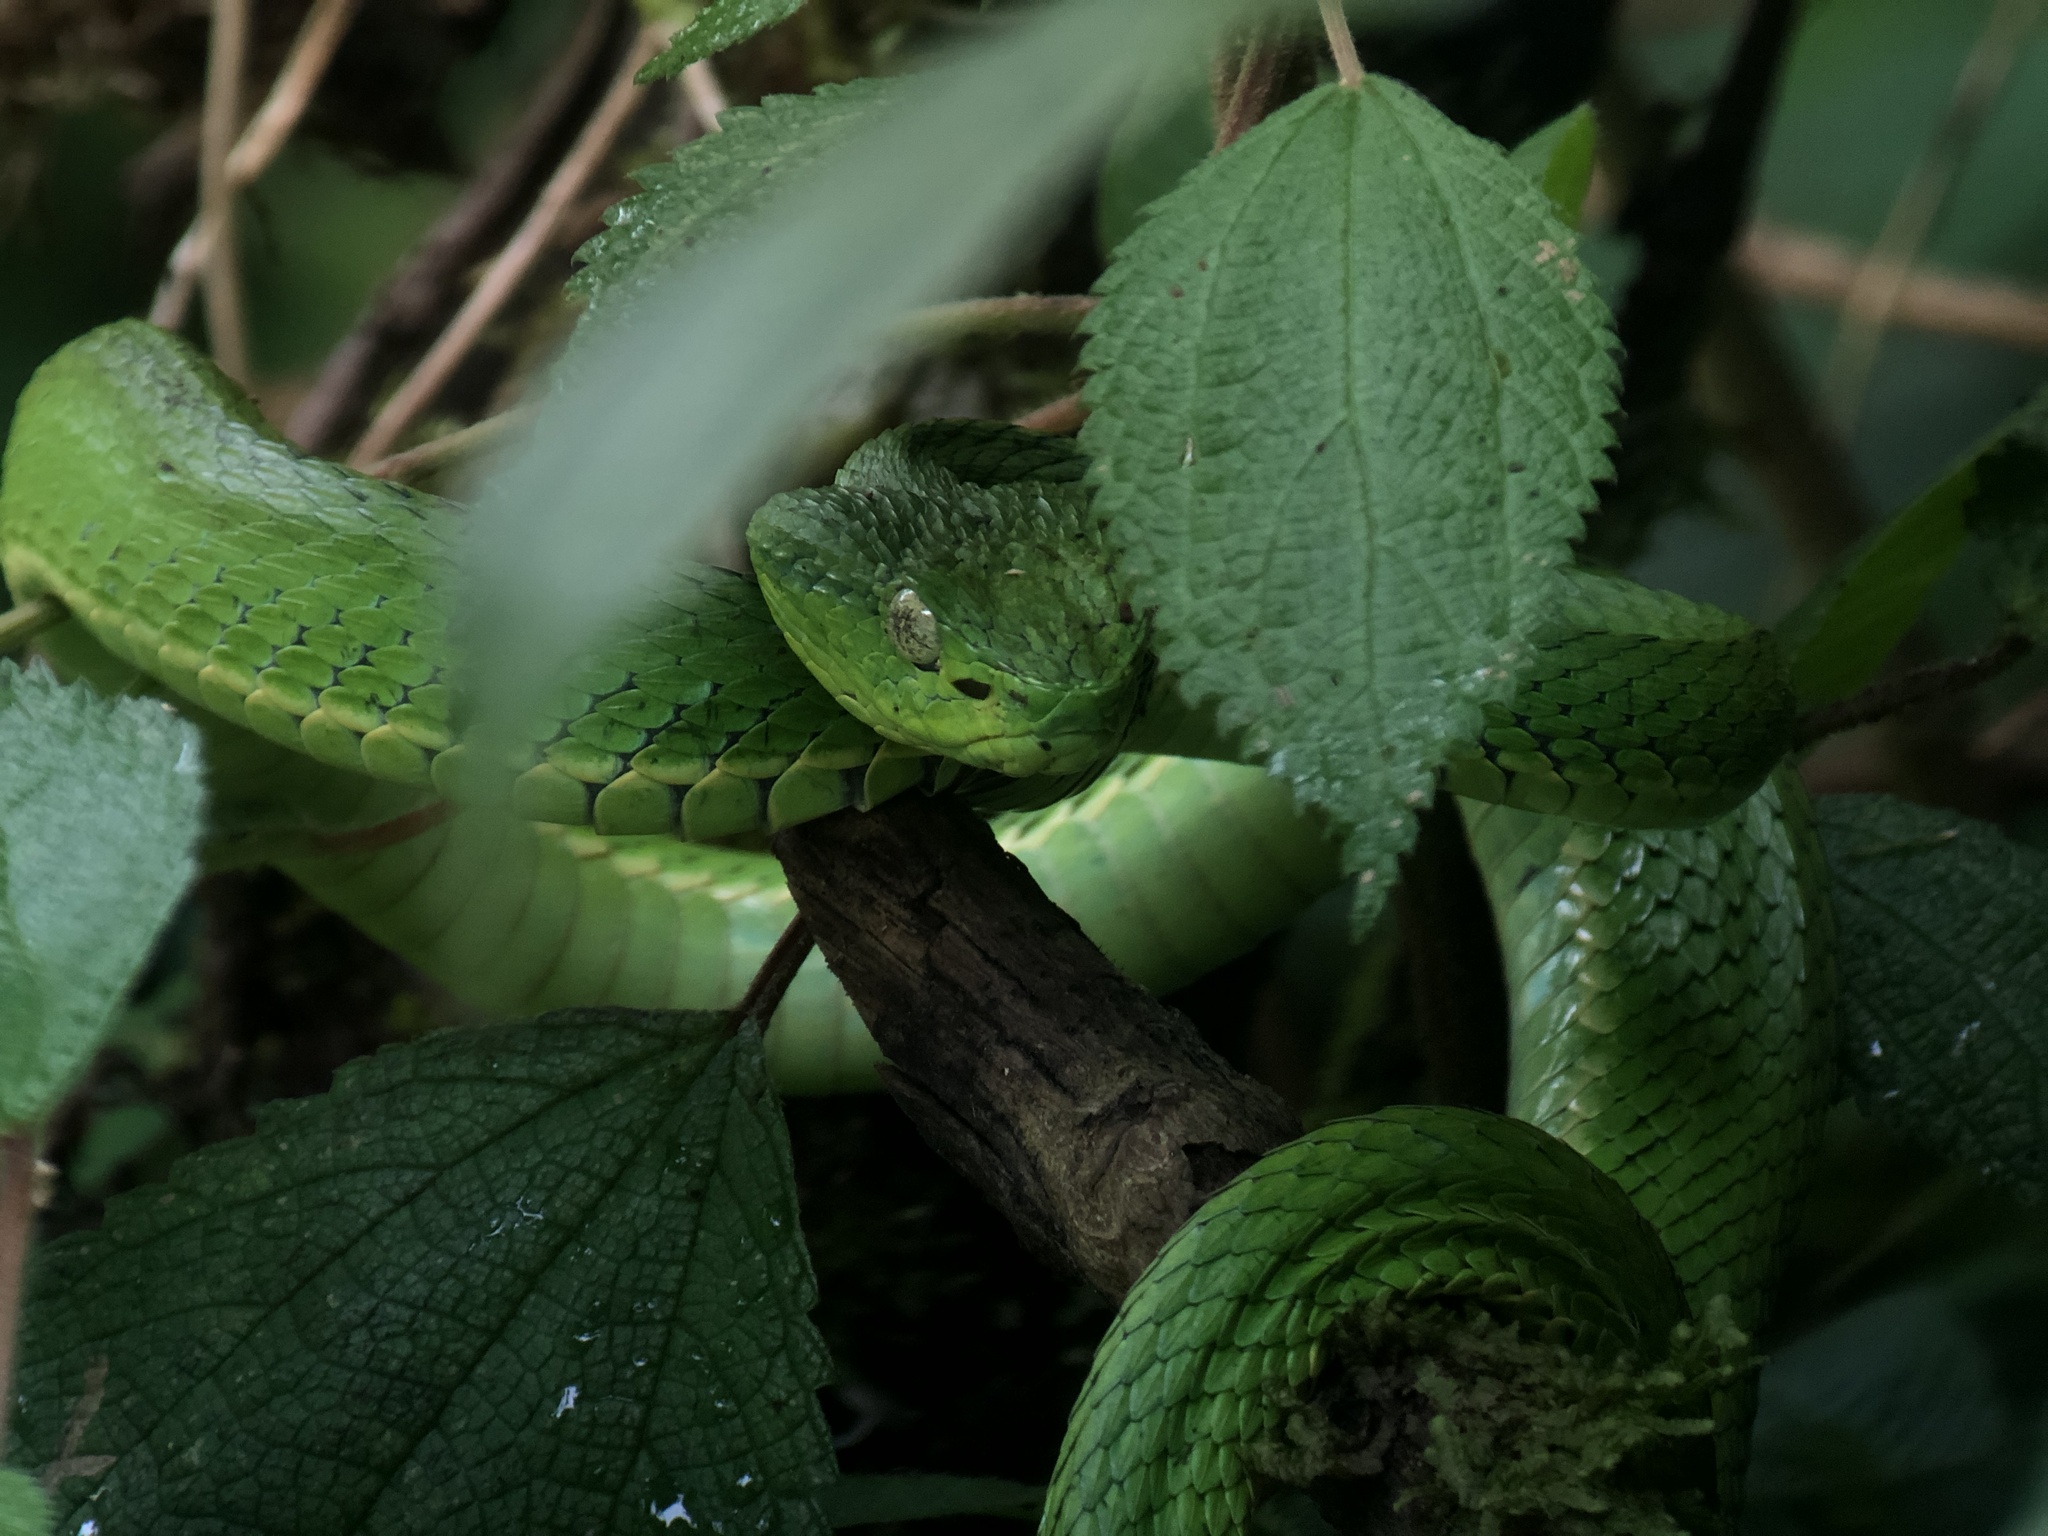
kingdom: Animalia
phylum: Chordata
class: Squamata
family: Viperidae
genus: Bothriechis
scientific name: Bothriechis lateralis
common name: Coffee palm viper
